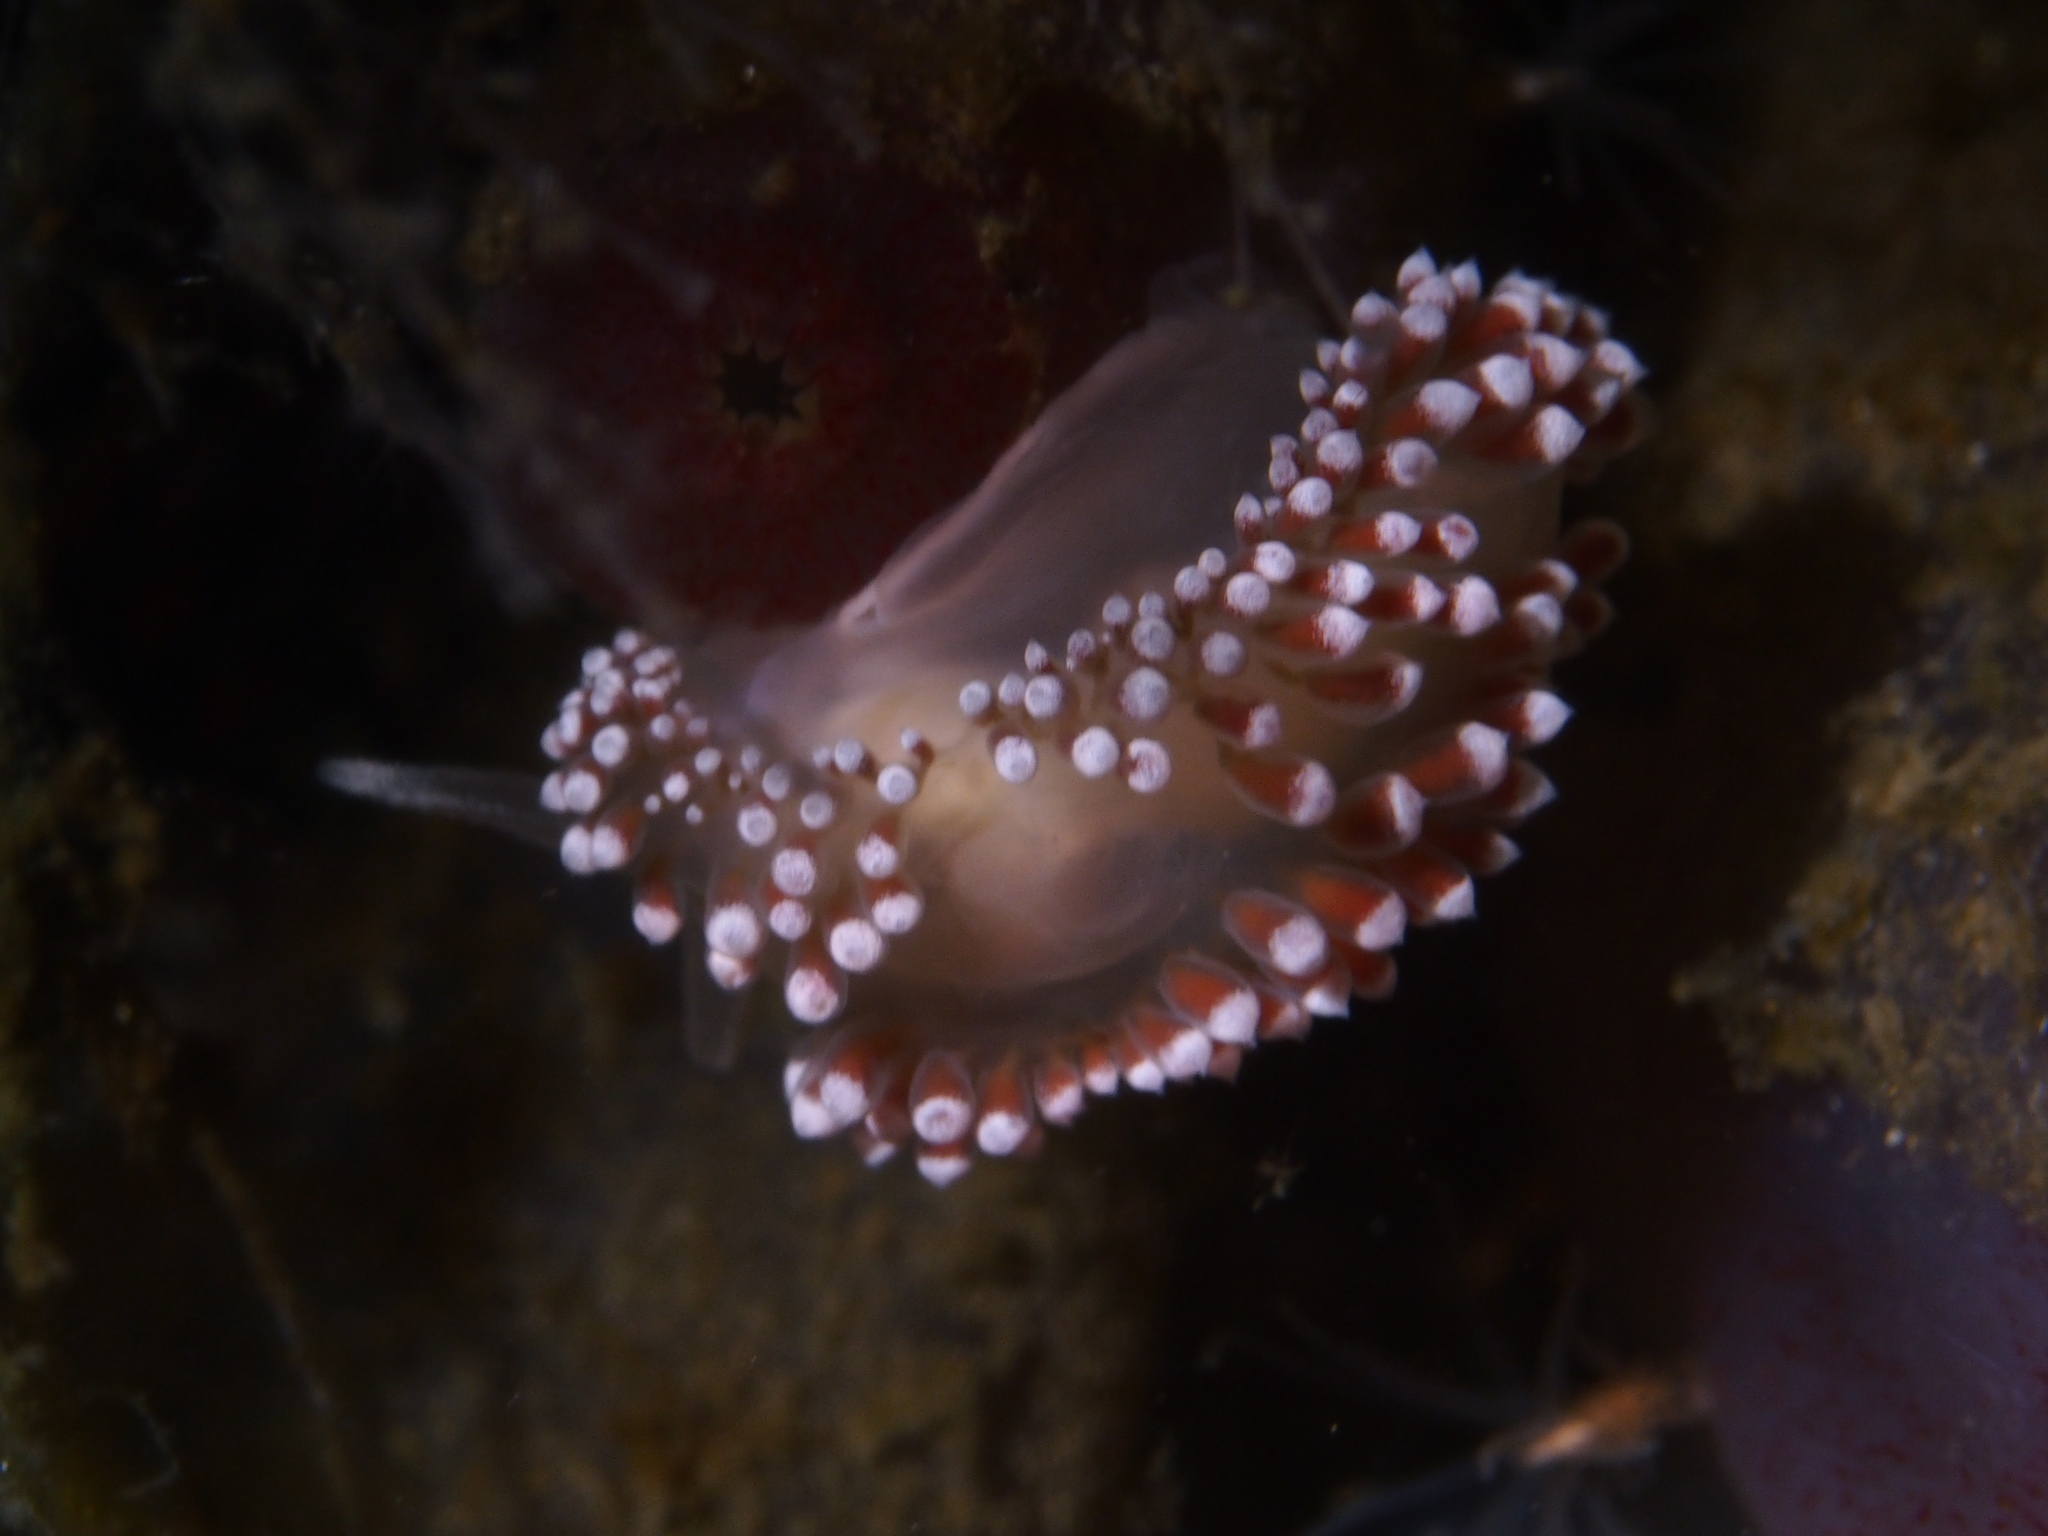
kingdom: Animalia
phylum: Mollusca
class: Gastropoda
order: Nudibranchia
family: Coryphellidae
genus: Coryphella
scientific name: Coryphella verrucosa
